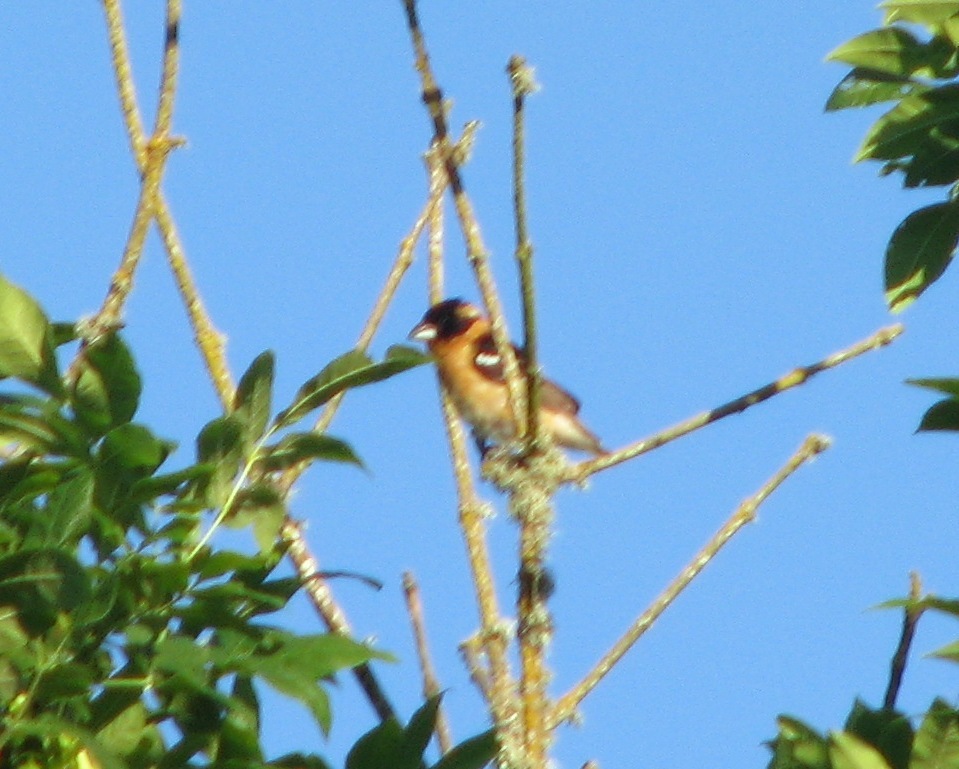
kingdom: Animalia
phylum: Chordata
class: Aves
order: Passeriformes
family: Cardinalidae
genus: Pheucticus
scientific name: Pheucticus melanocephalus
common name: Black-headed grosbeak
